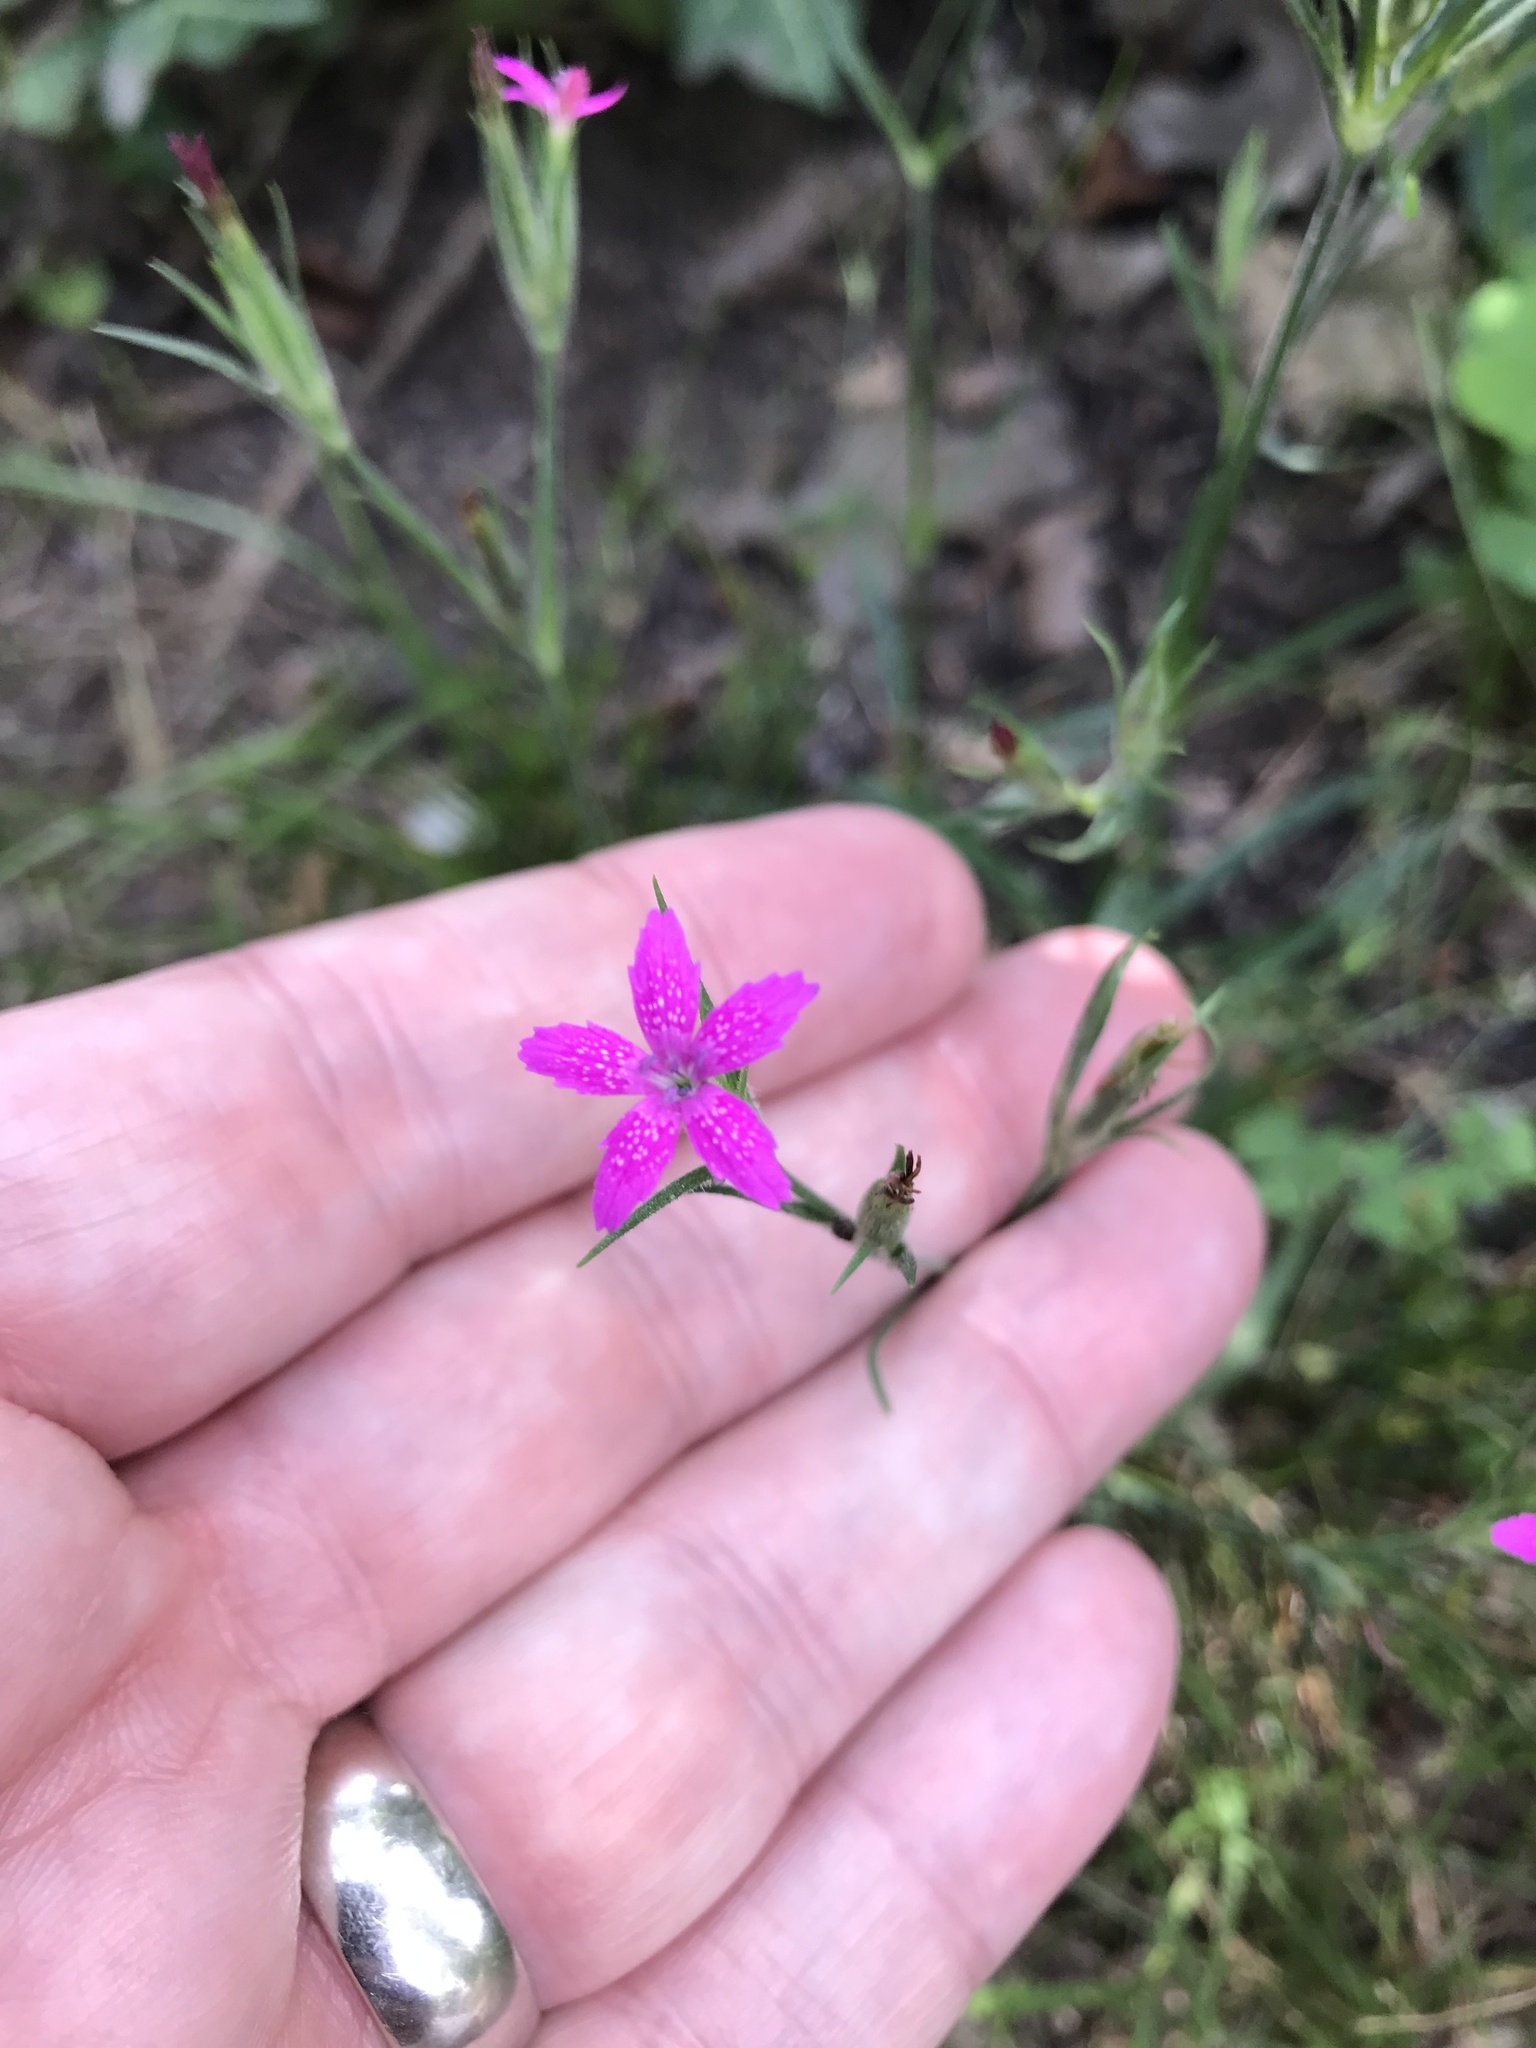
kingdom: Plantae
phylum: Tracheophyta
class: Magnoliopsida
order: Caryophyllales
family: Caryophyllaceae
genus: Dianthus
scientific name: Dianthus armeria
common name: Deptford pink
